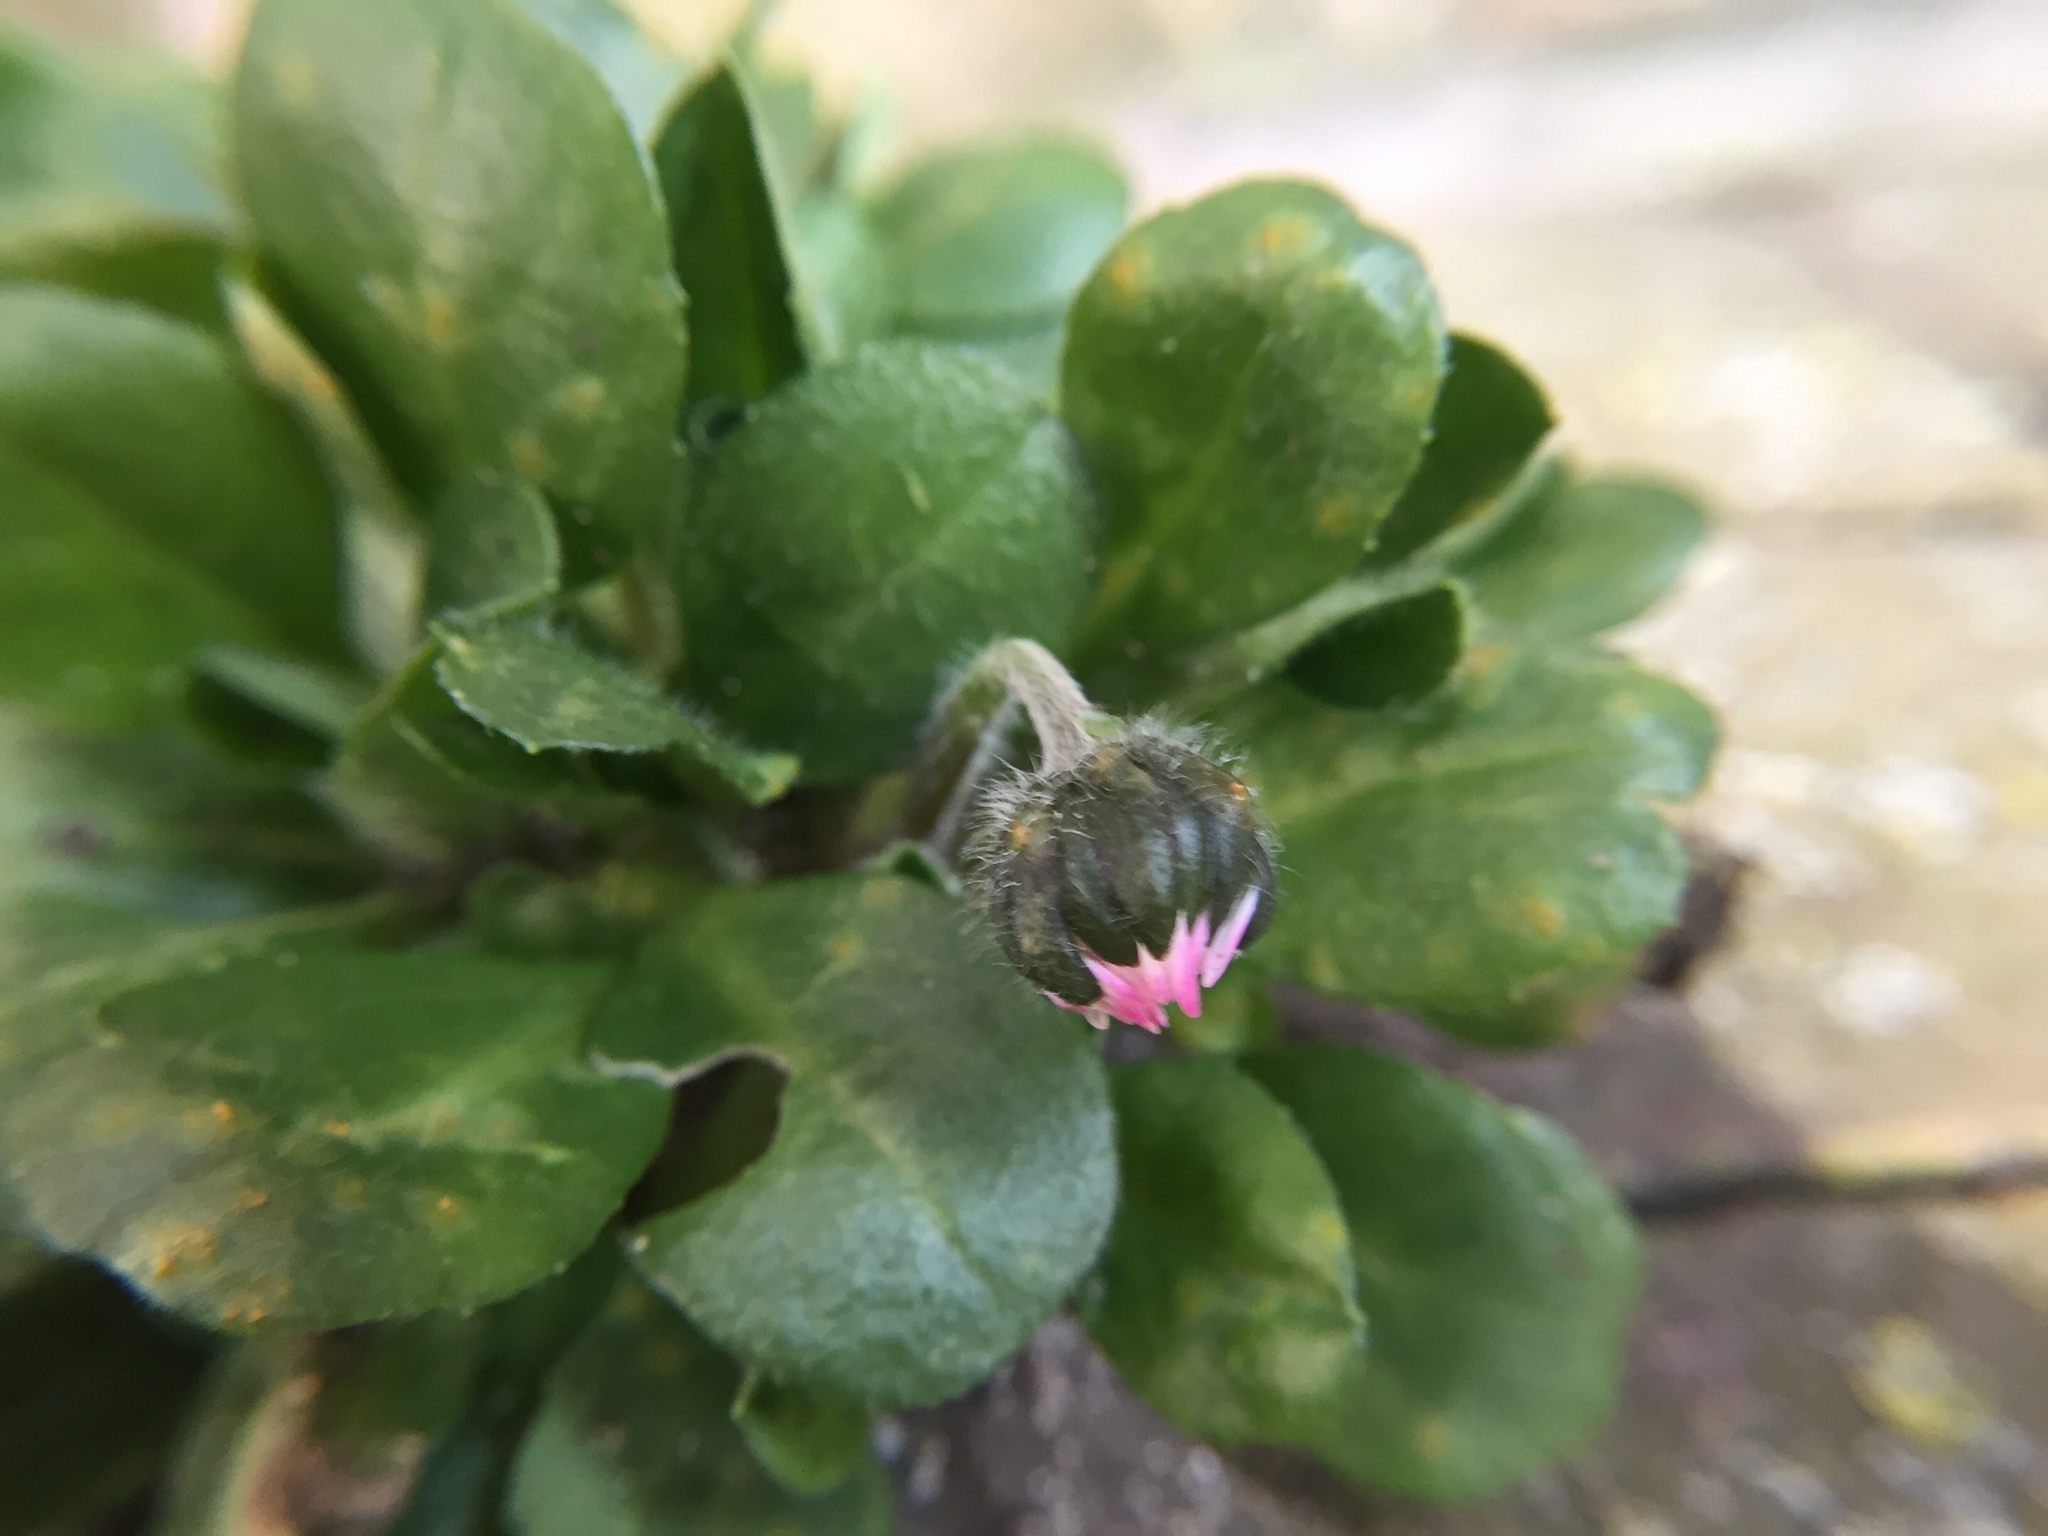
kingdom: Plantae
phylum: Tracheophyta
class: Magnoliopsida
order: Asterales
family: Asteraceae
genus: Bellis
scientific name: Bellis perennis
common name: Lawndaisy
